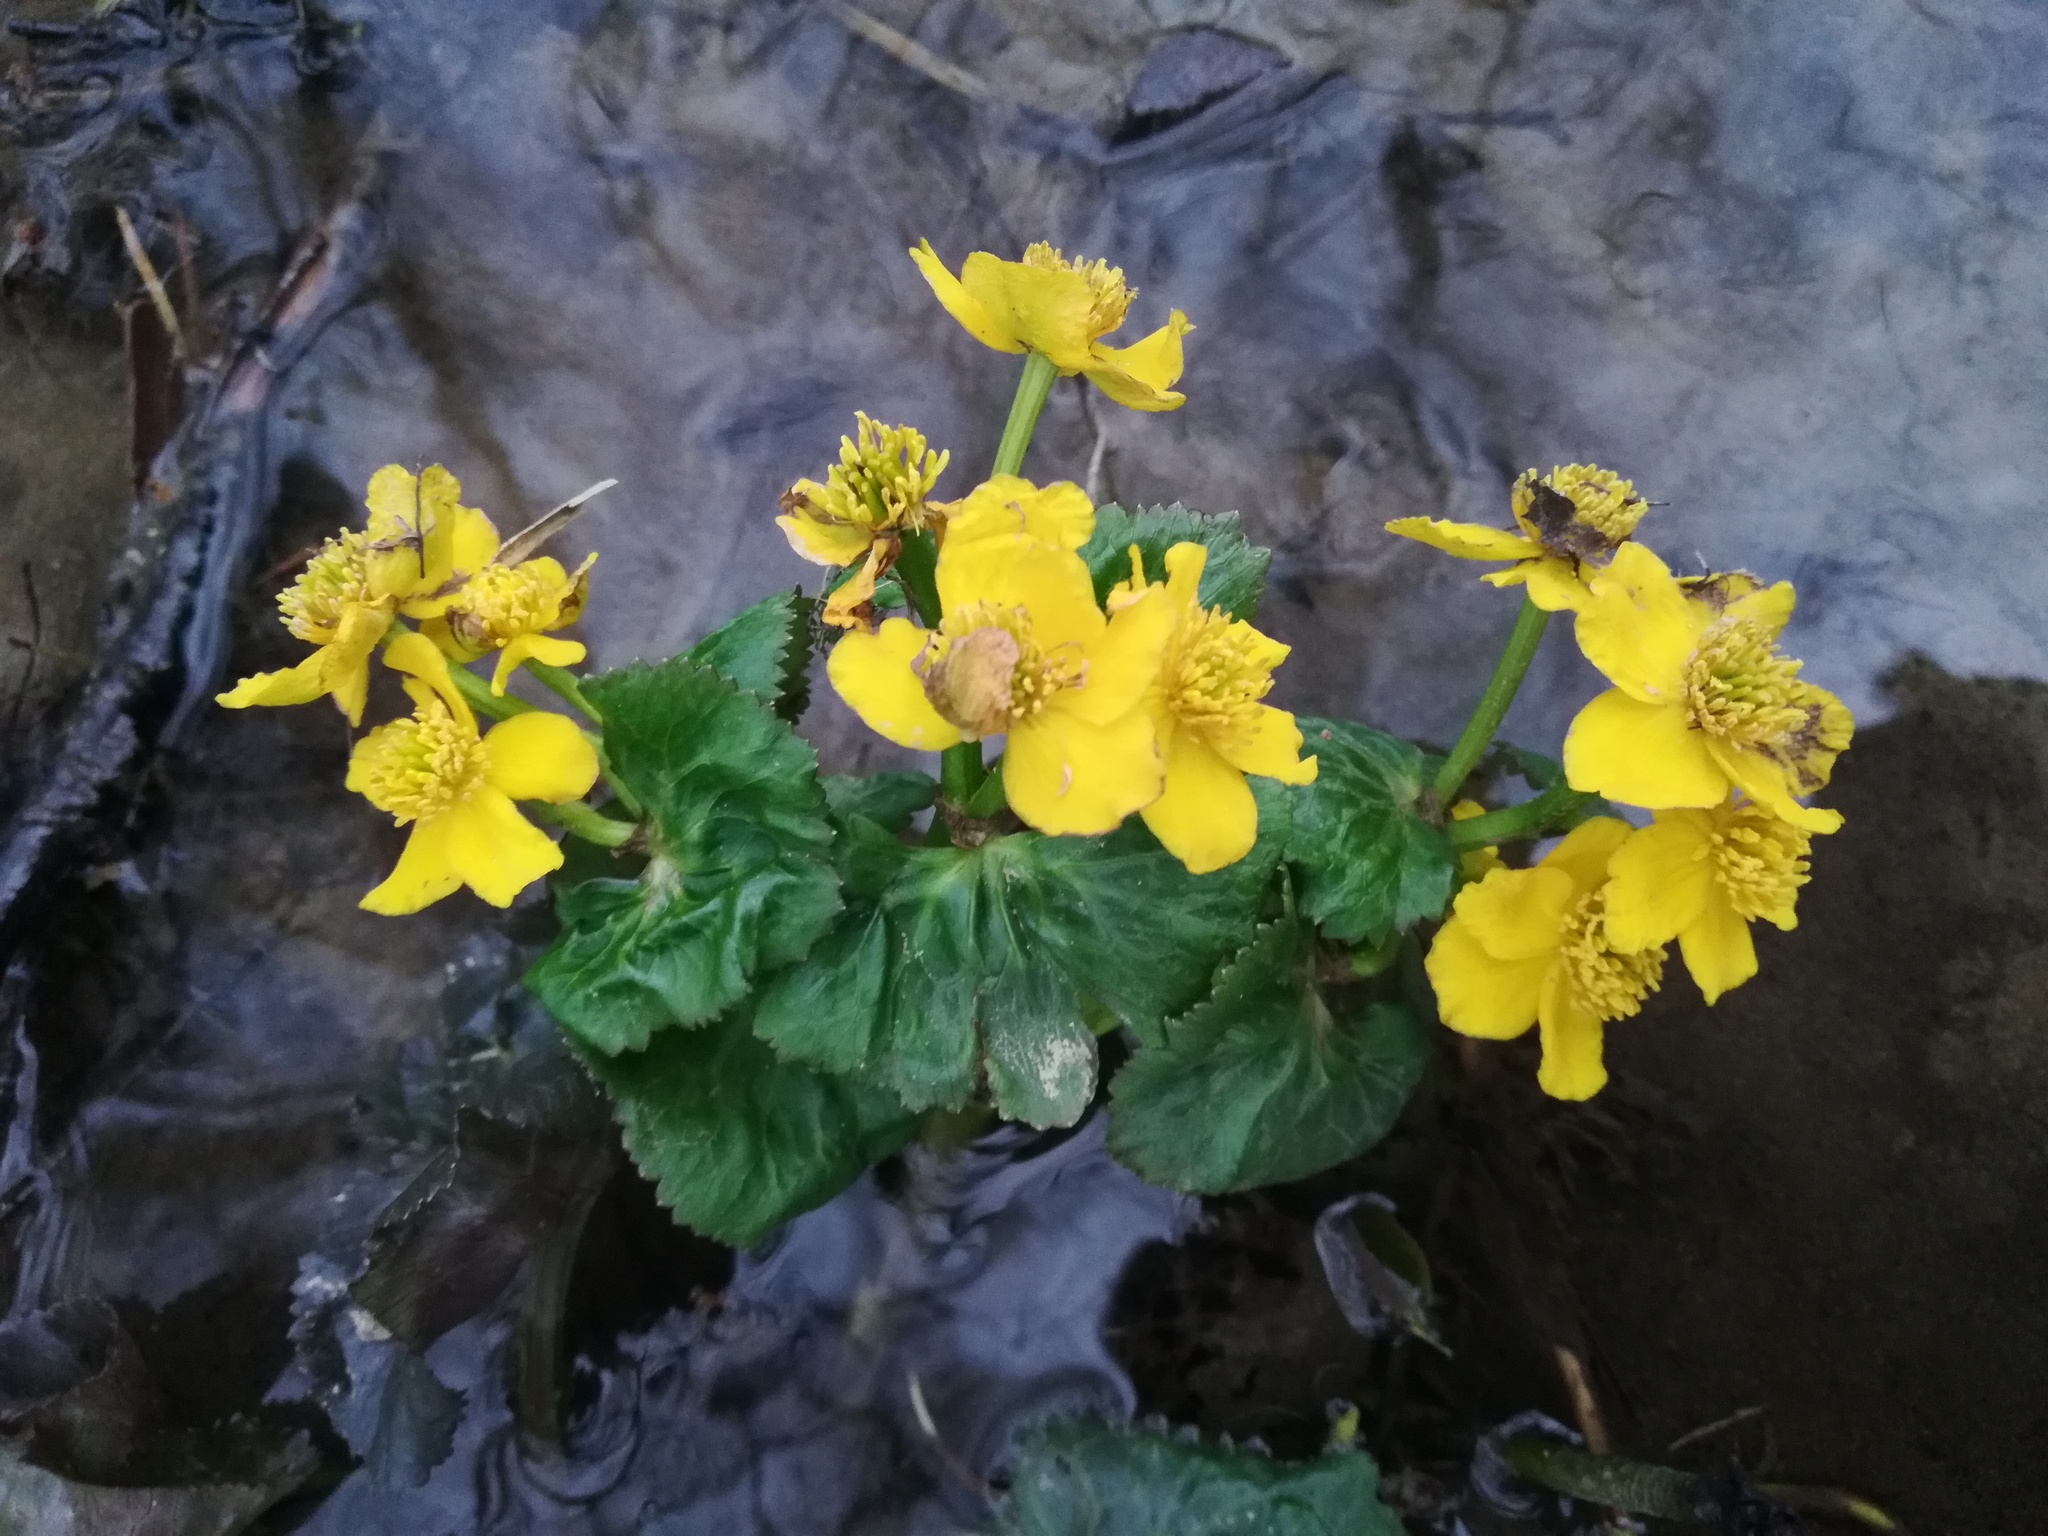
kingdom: Plantae
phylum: Tracheophyta
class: Magnoliopsida
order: Ranunculales
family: Ranunculaceae
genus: Caltha
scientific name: Caltha palustris
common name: Marsh marigold
